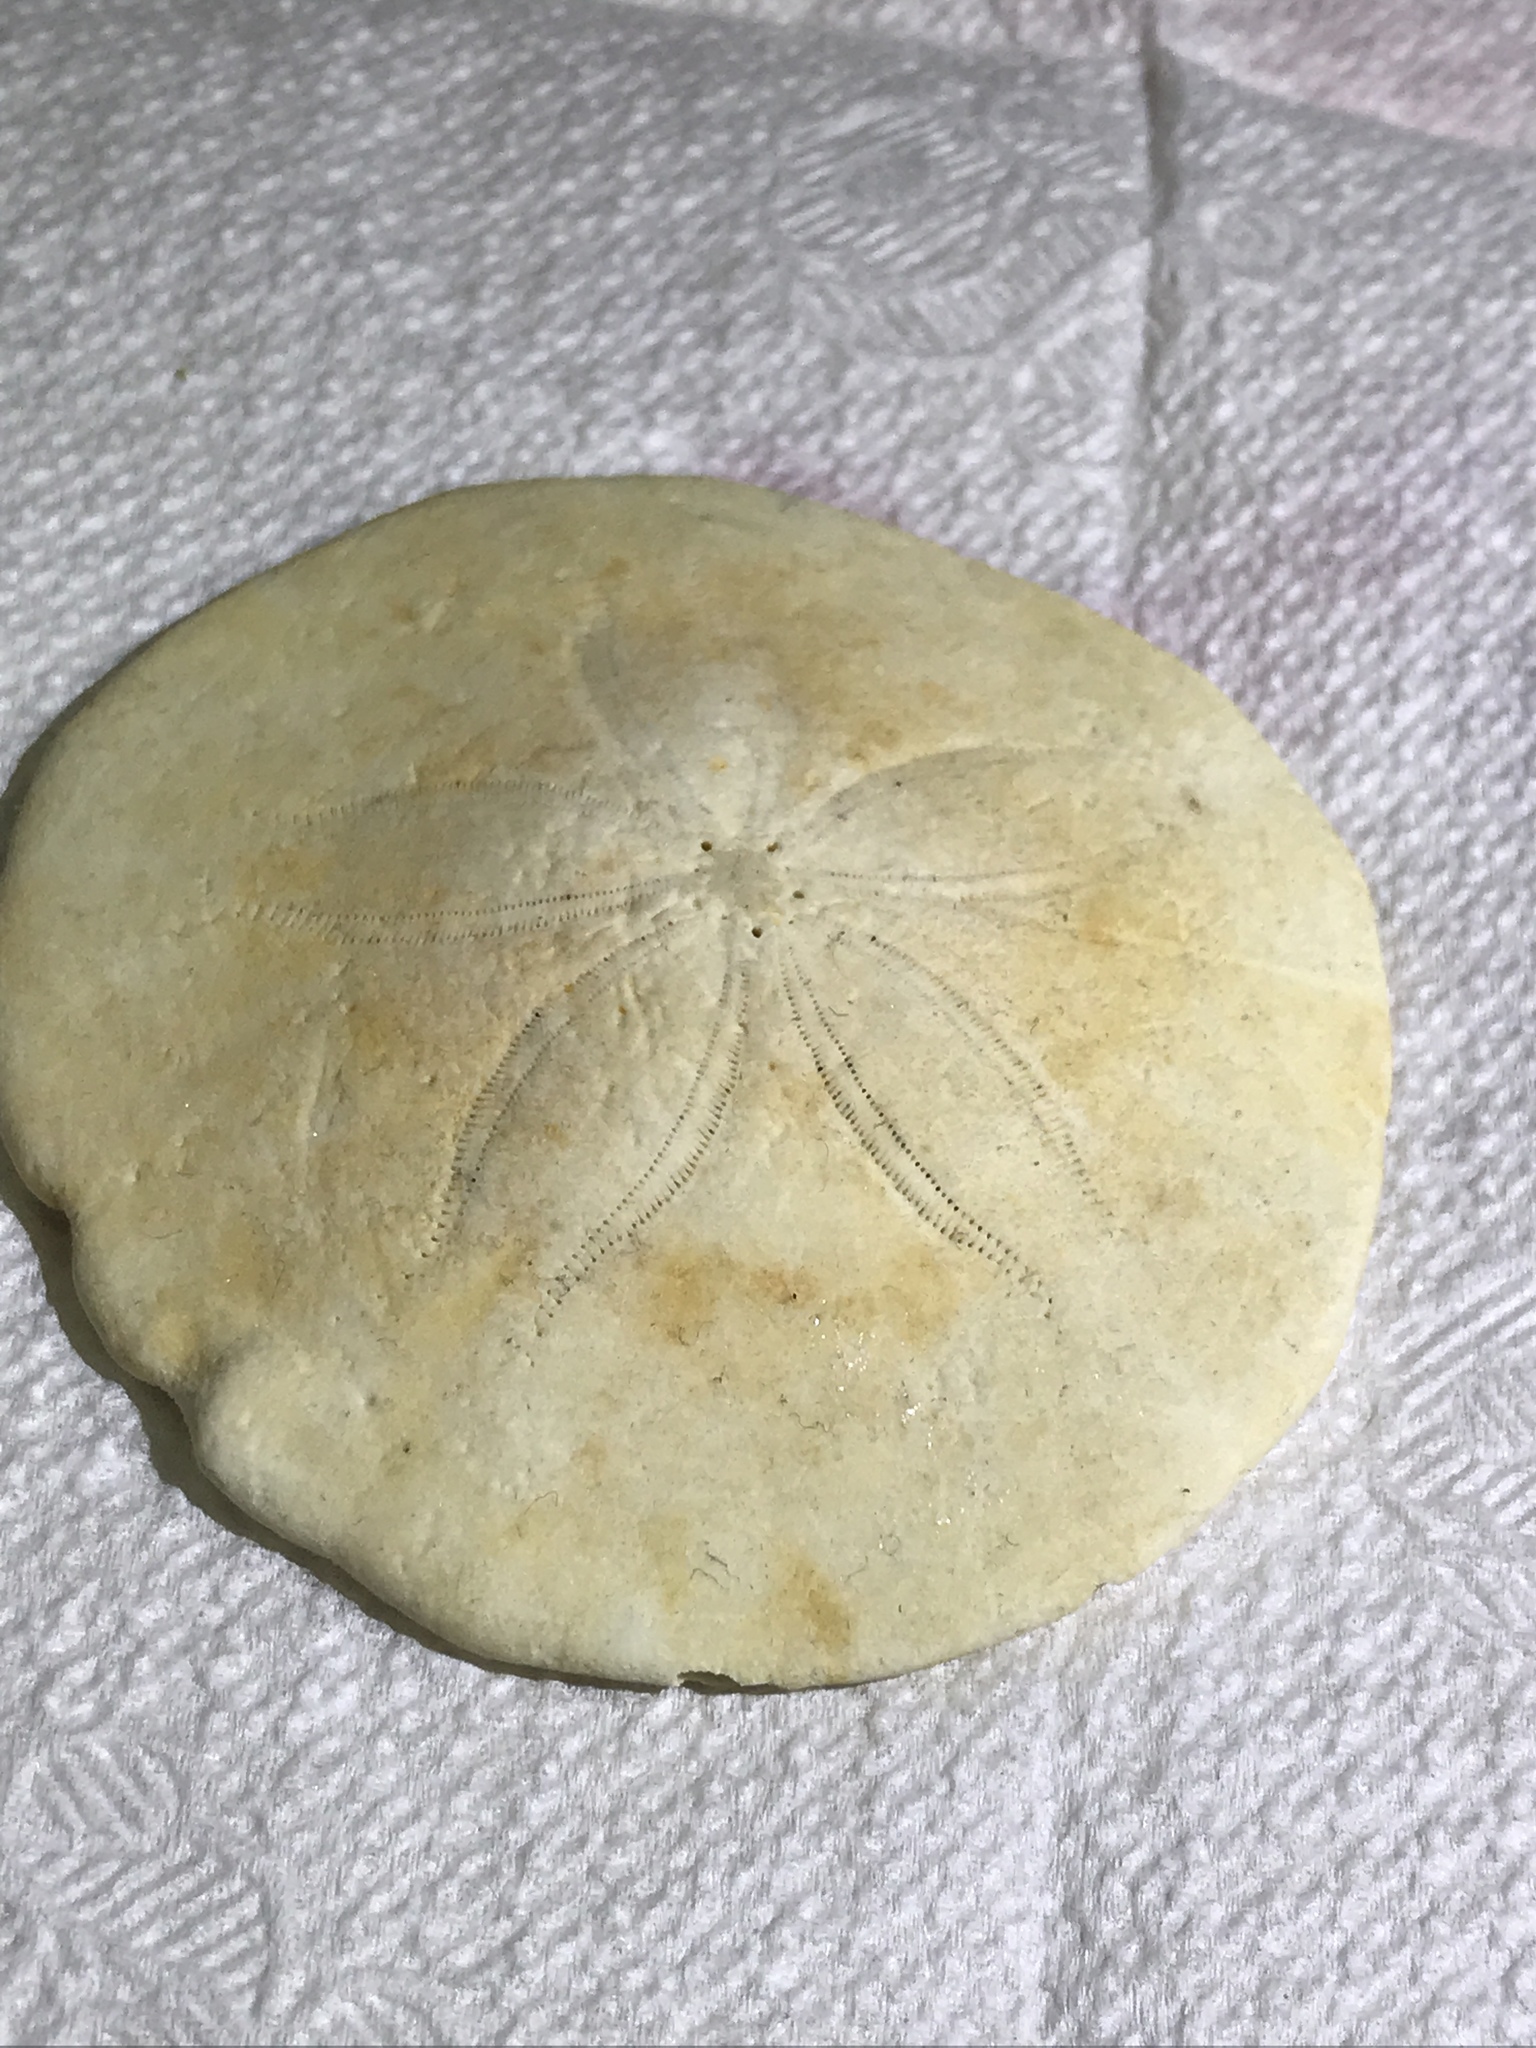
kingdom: Animalia
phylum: Echinodermata
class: Echinoidea
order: Echinolampadacea
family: Echinarachniidae
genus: Echinarachnius
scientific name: Echinarachnius parma
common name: Common sand dollar
